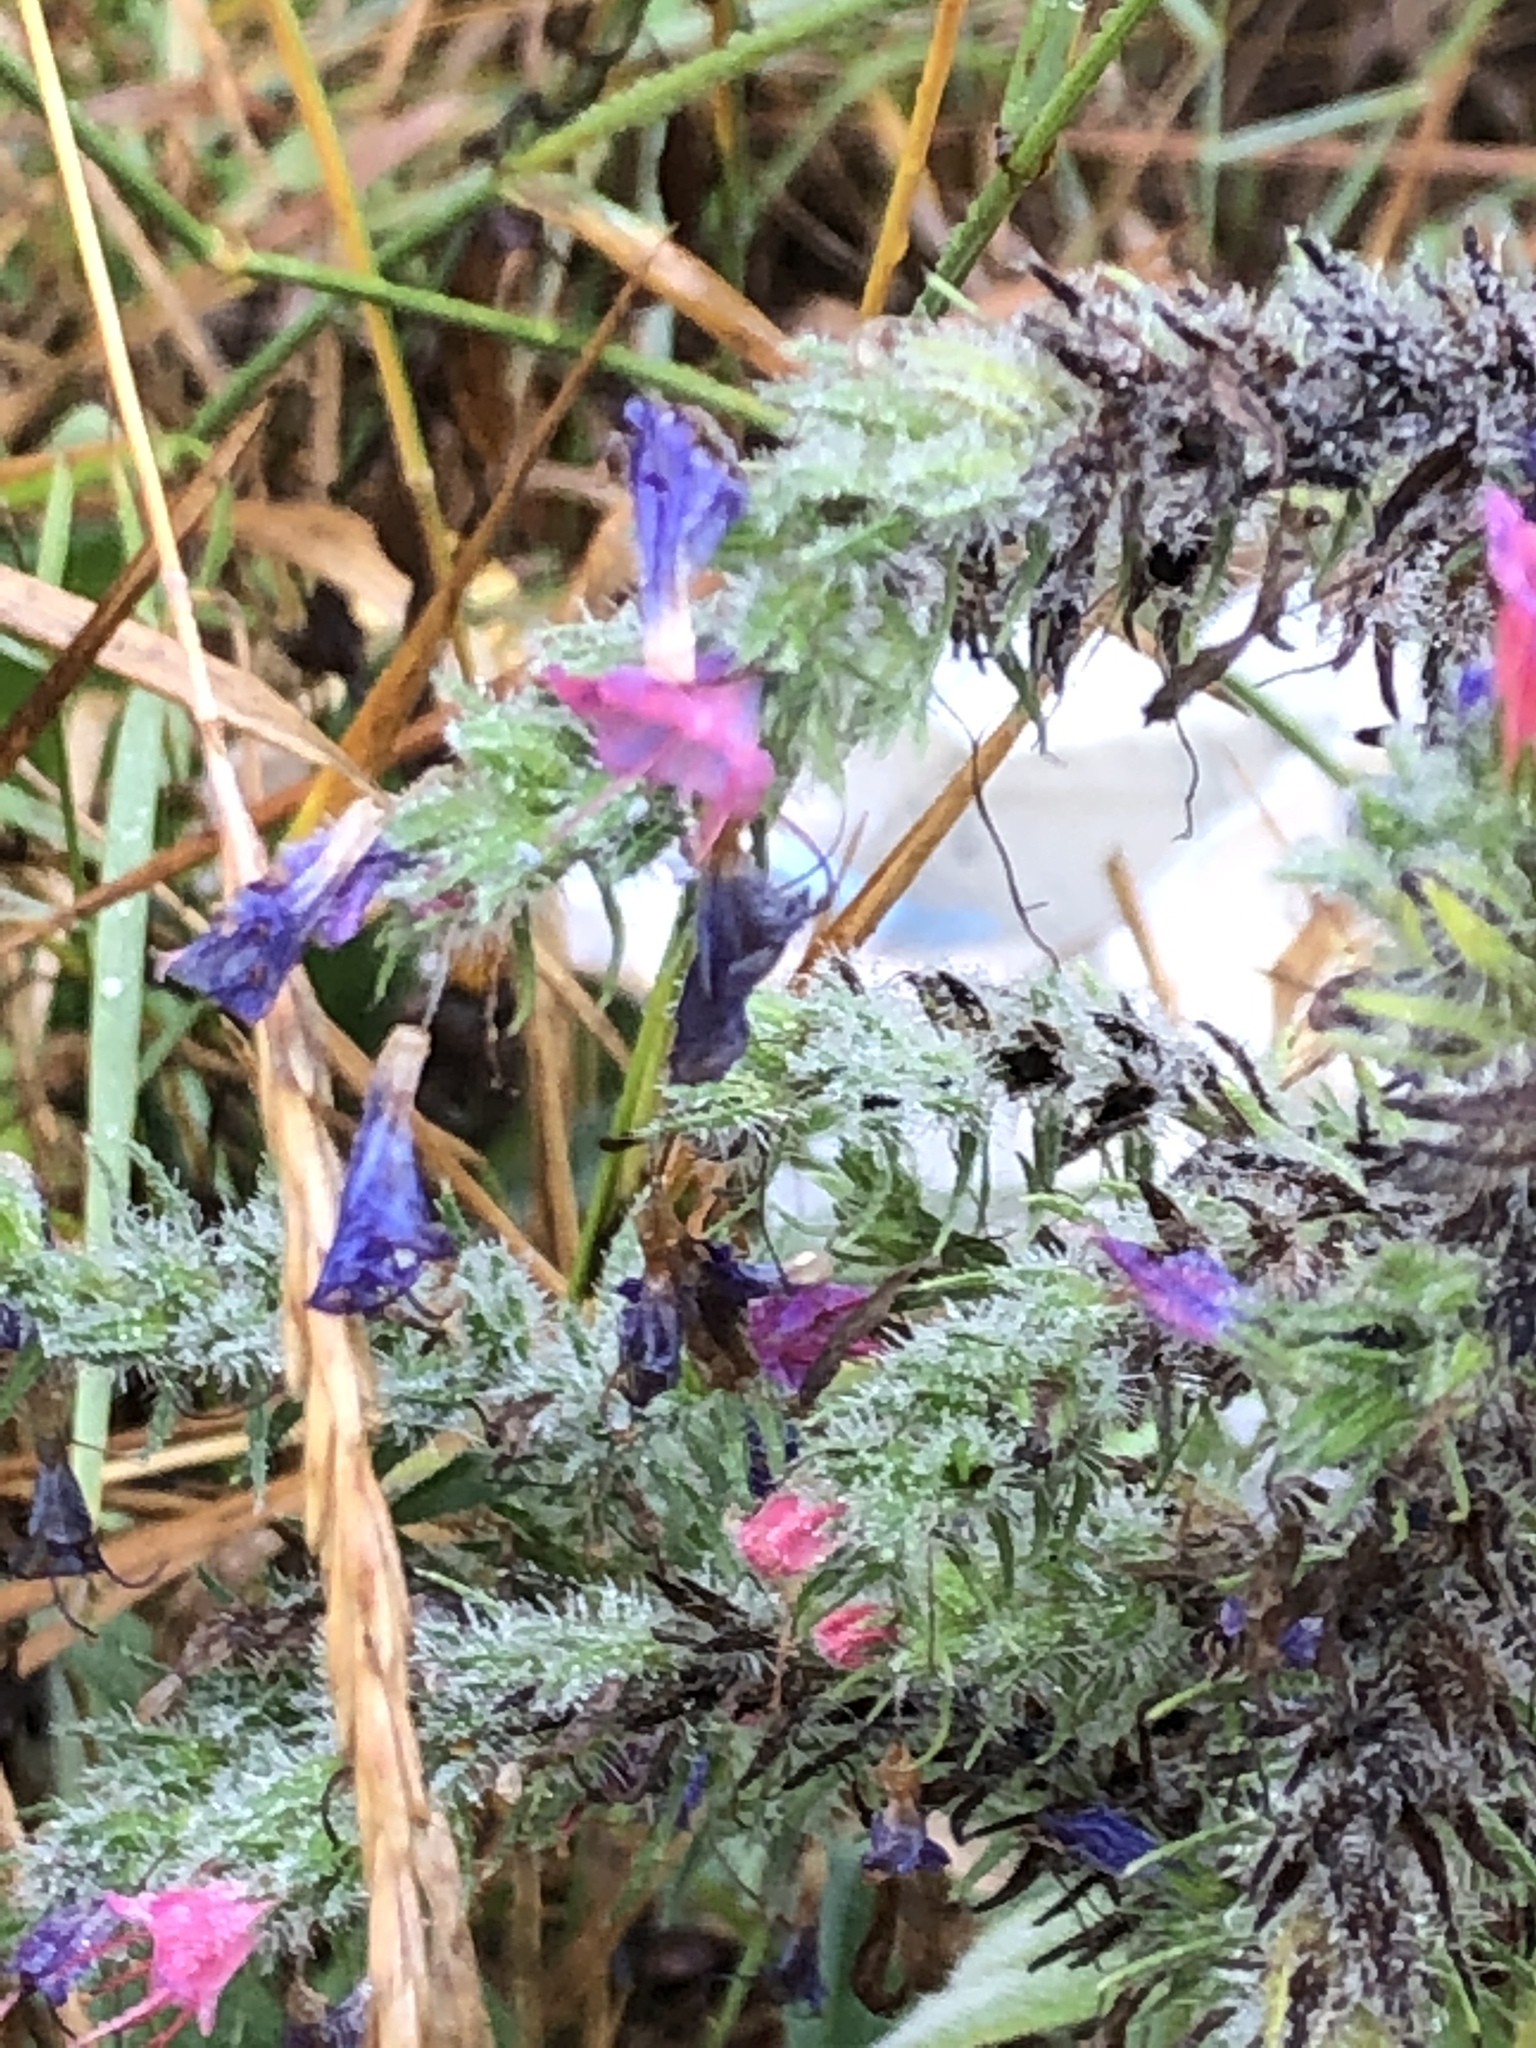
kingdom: Plantae
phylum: Tracheophyta
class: Magnoliopsida
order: Boraginales
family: Boraginaceae
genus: Echium
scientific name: Echium vulgare
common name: Common viper's bugloss
